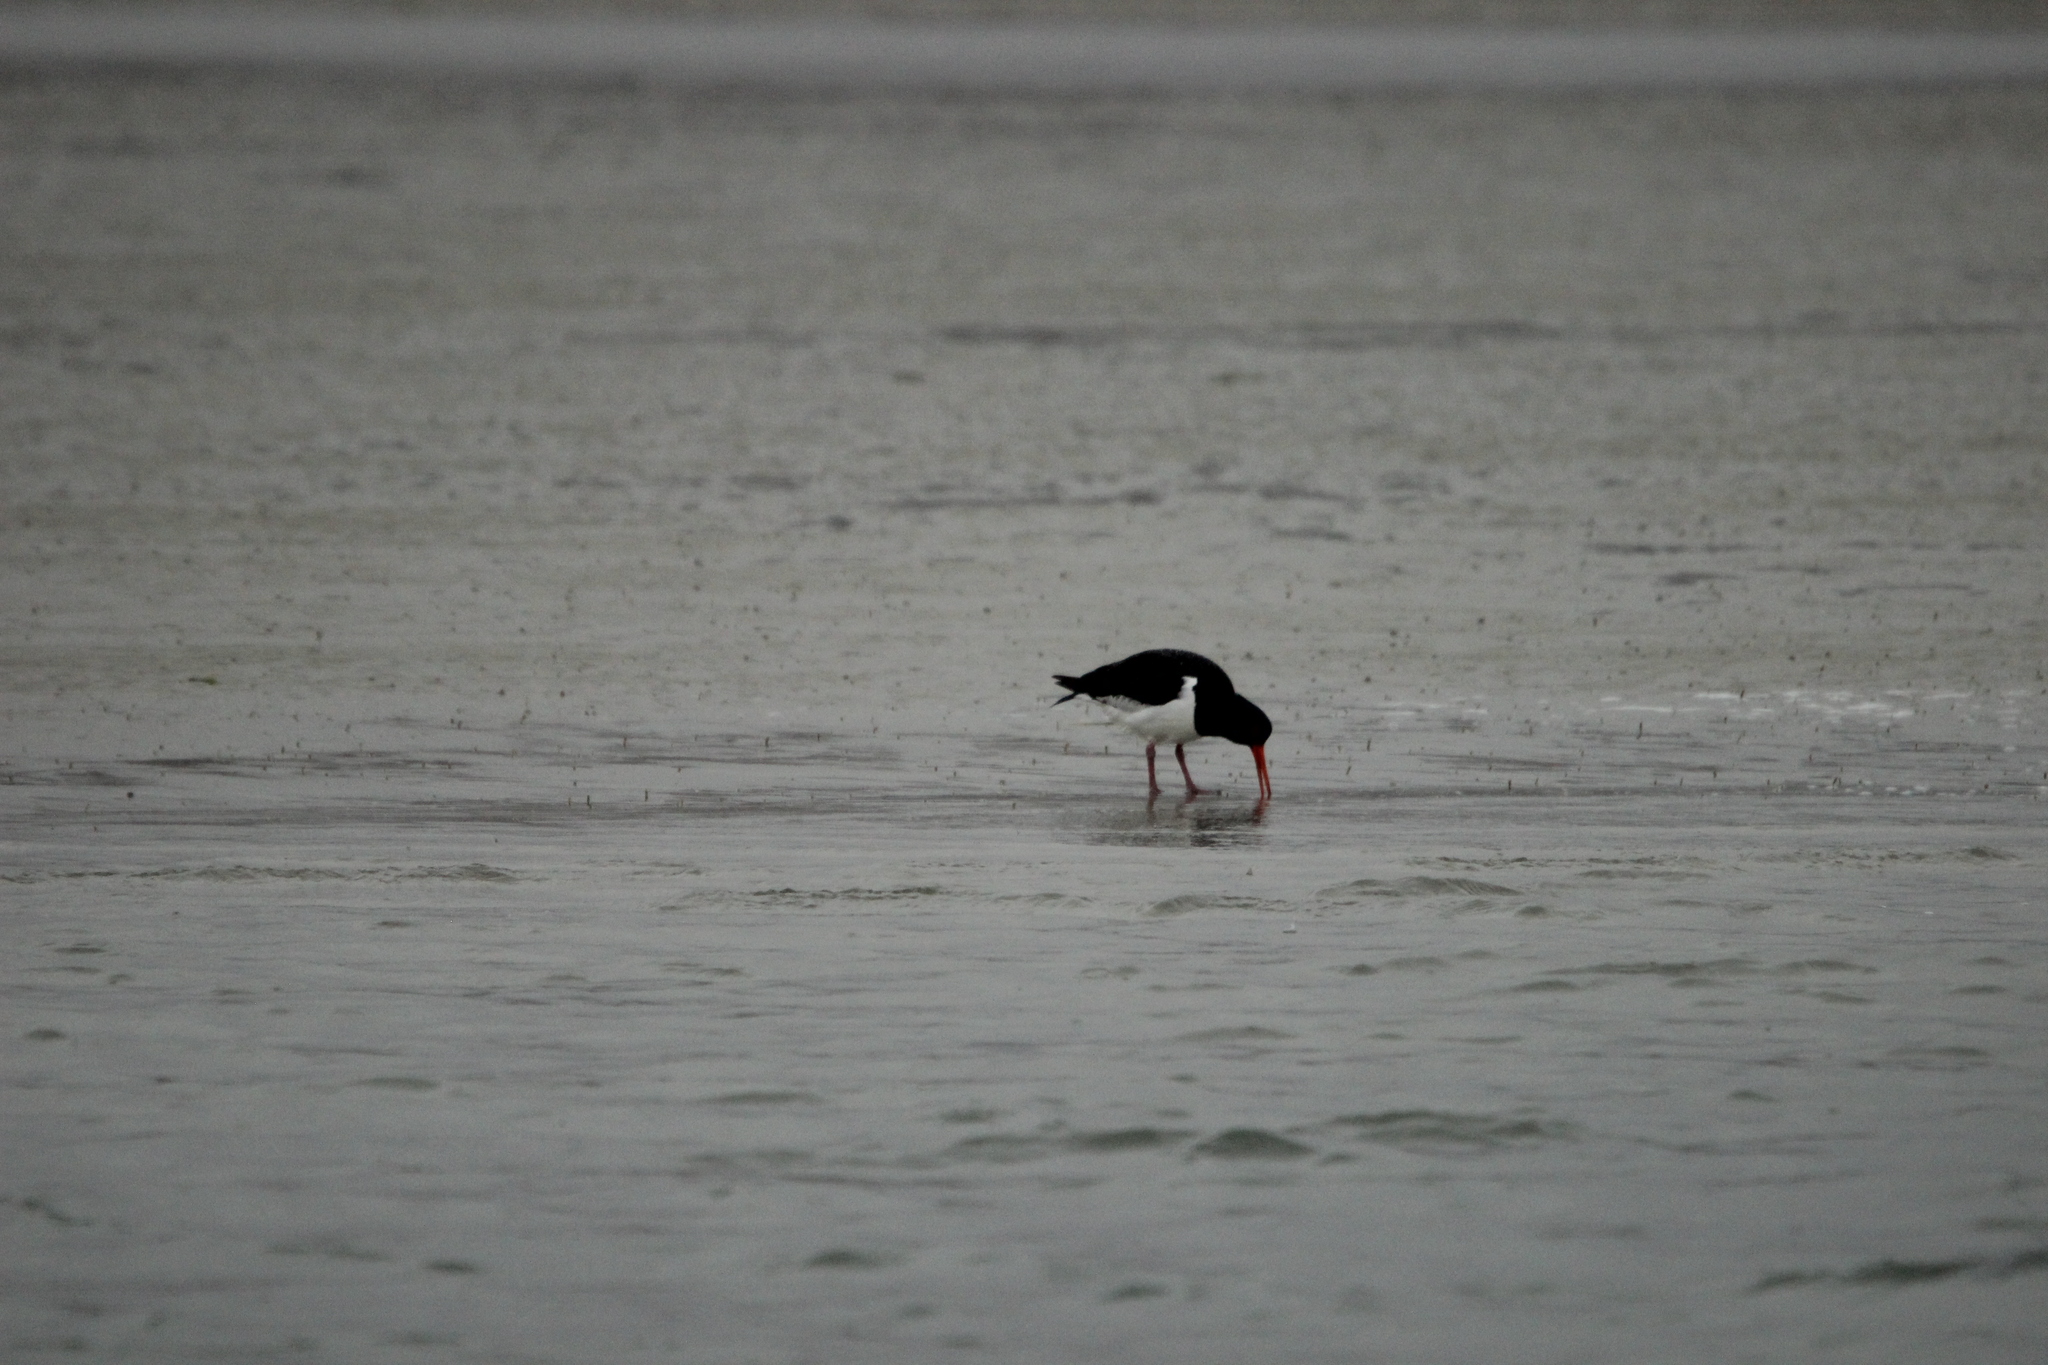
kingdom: Animalia
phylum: Chordata
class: Aves
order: Charadriiformes
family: Haematopodidae
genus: Haematopus
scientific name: Haematopus finschi
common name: South island oystercatcher
